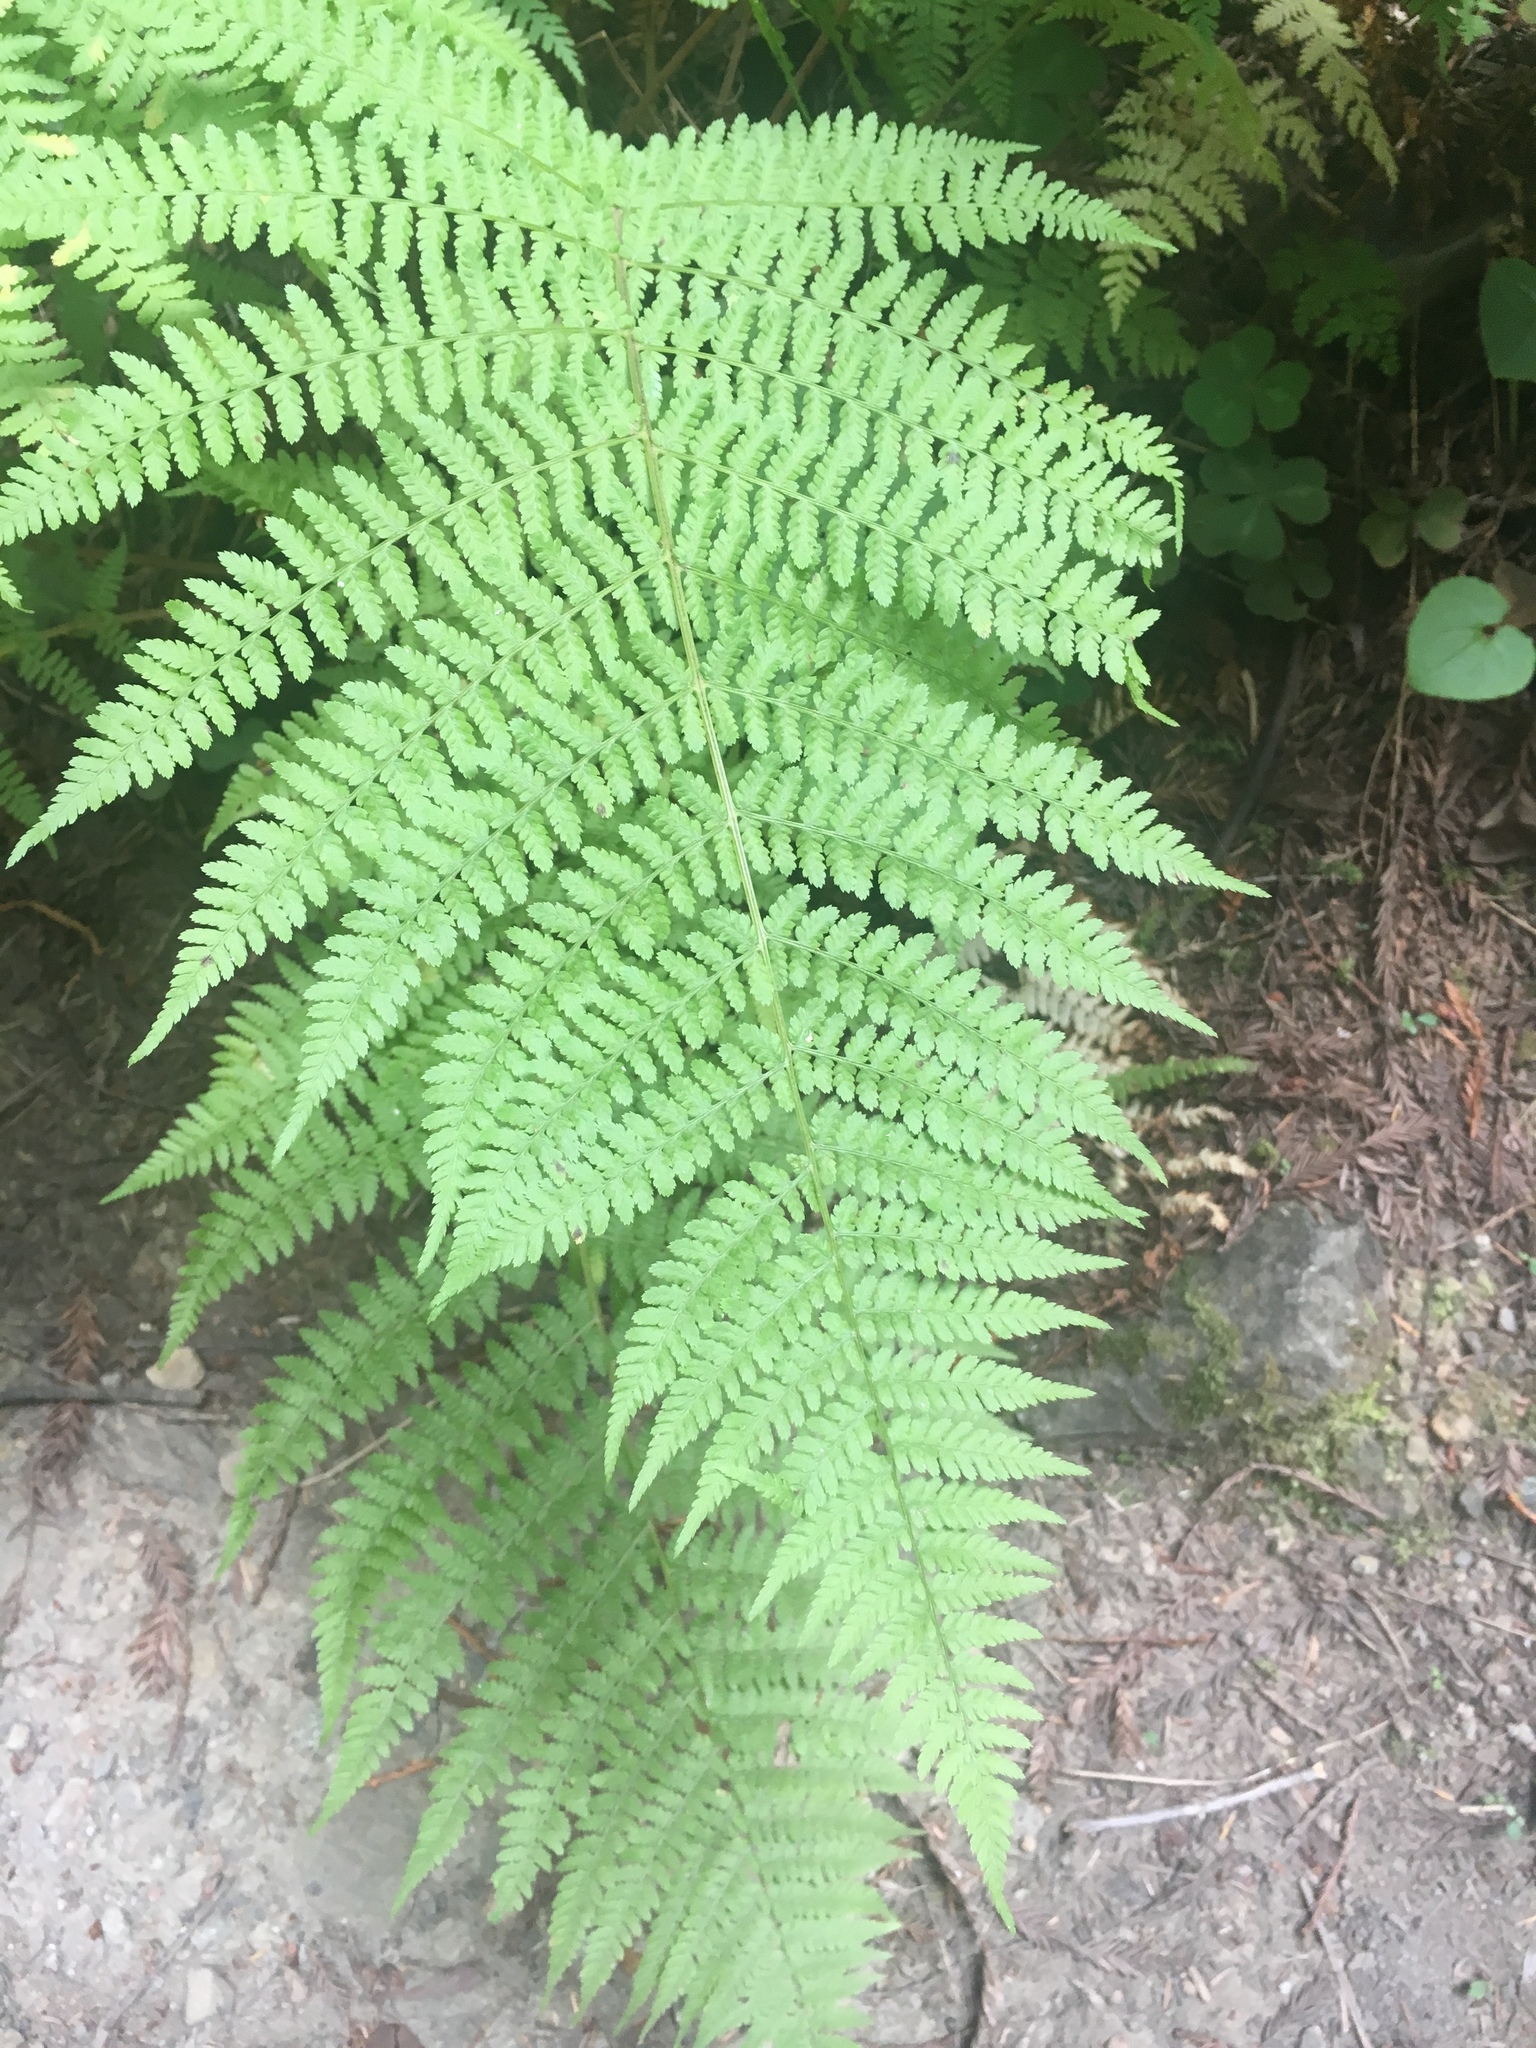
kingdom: Plantae
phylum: Tracheophyta
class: Polypodiopsida
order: Polypodiales
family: Athyriaceae
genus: Athyrium
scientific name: Athyrium filix-femina
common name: Lady fern
